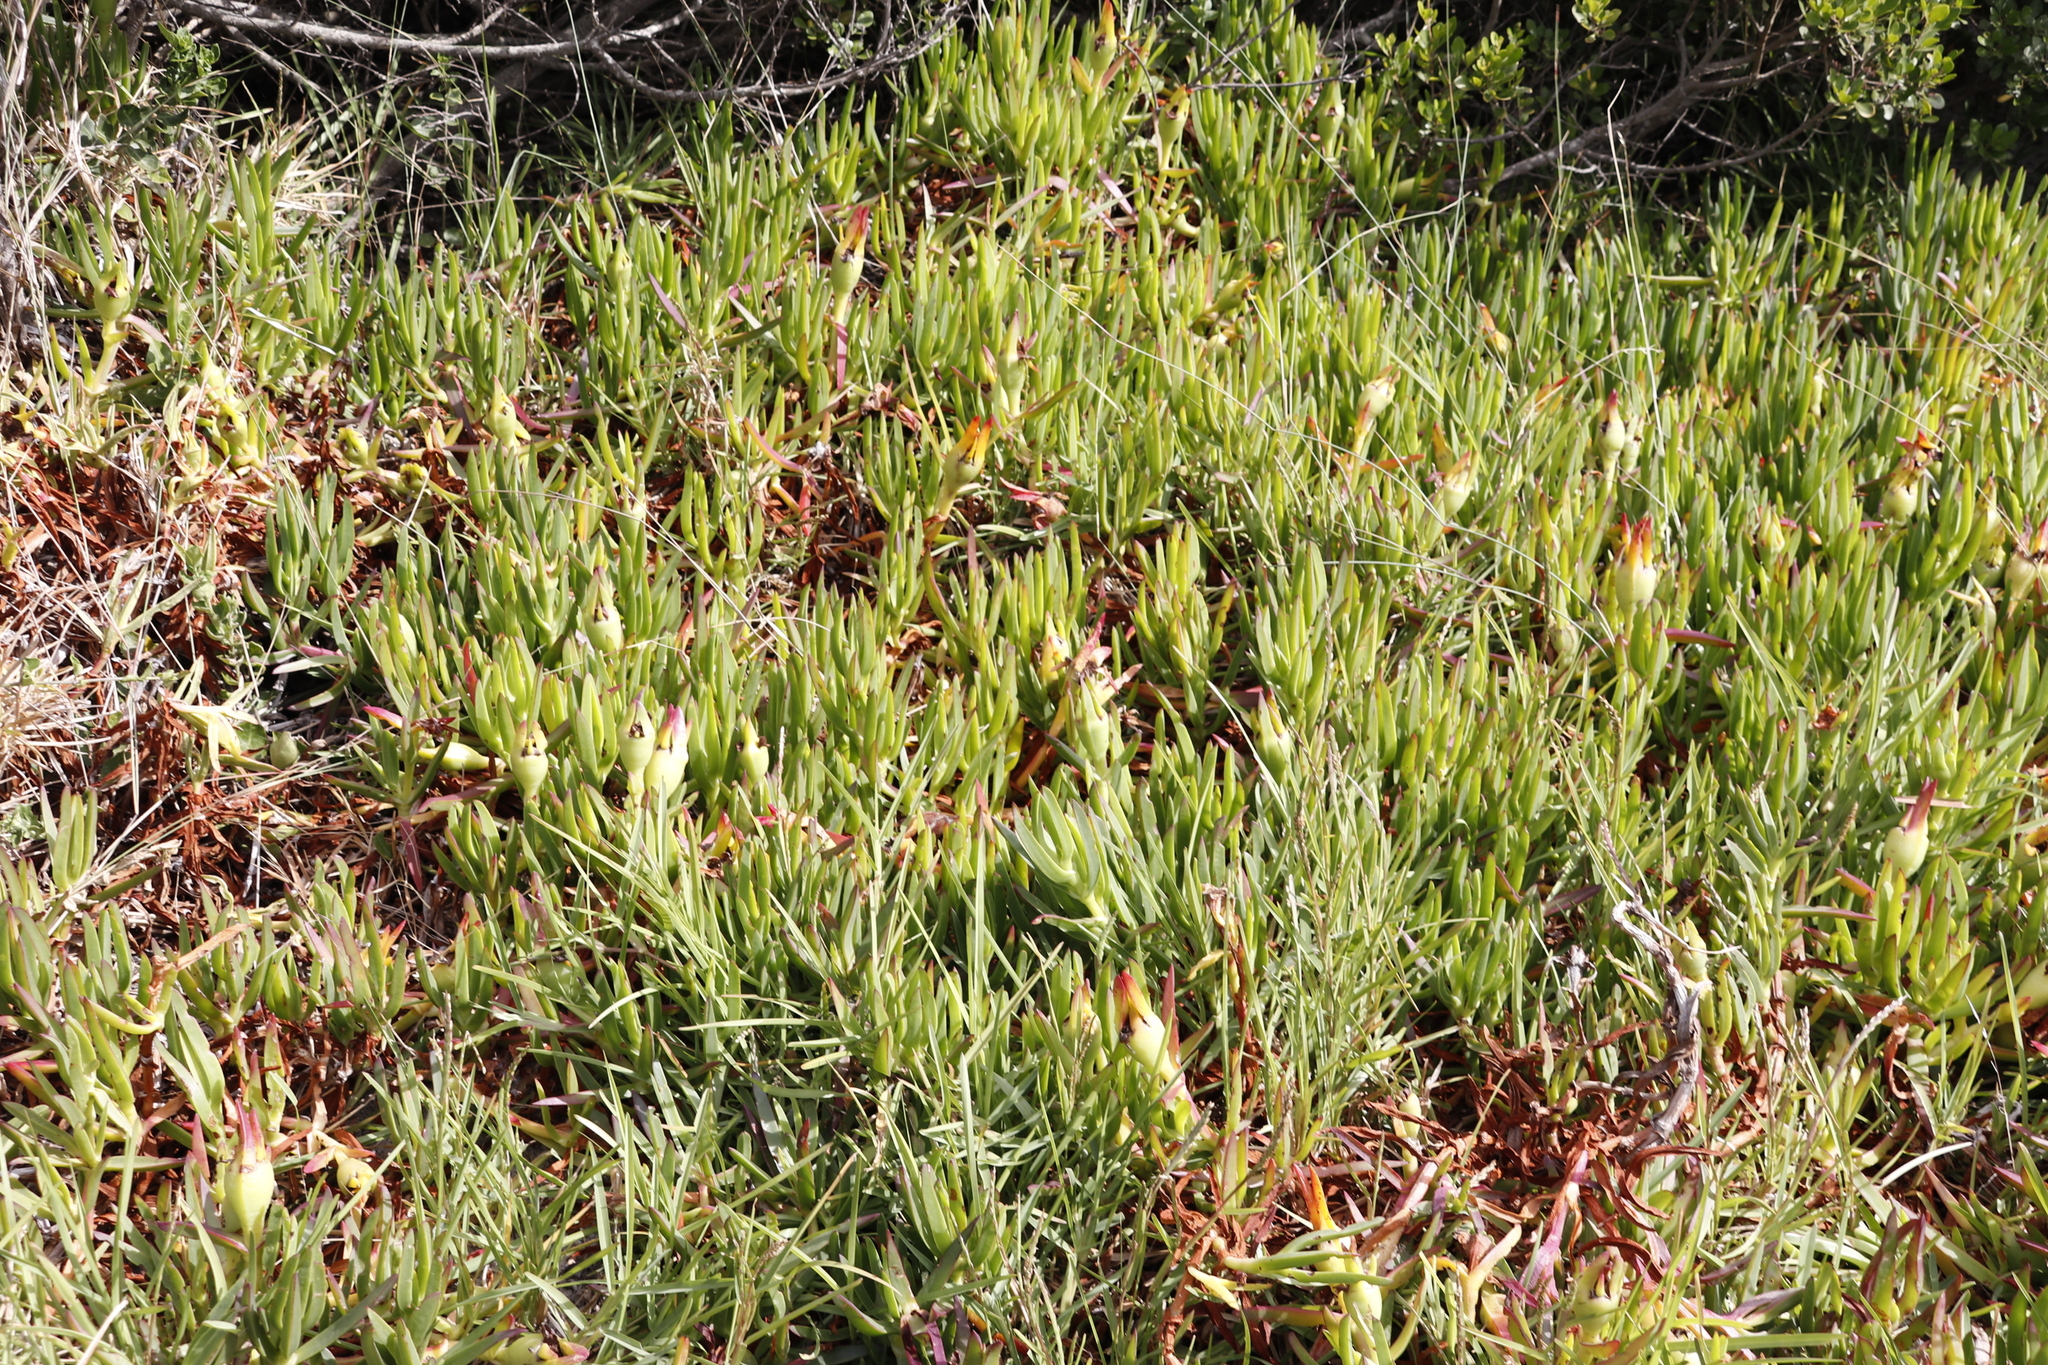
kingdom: Plantae
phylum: Tracheophyta
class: Magnoliopsida
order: Caryophyllales
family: Aizoaceae
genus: Carpobrotus
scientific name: Carpobrotus edulis
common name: Hottentot-fig
